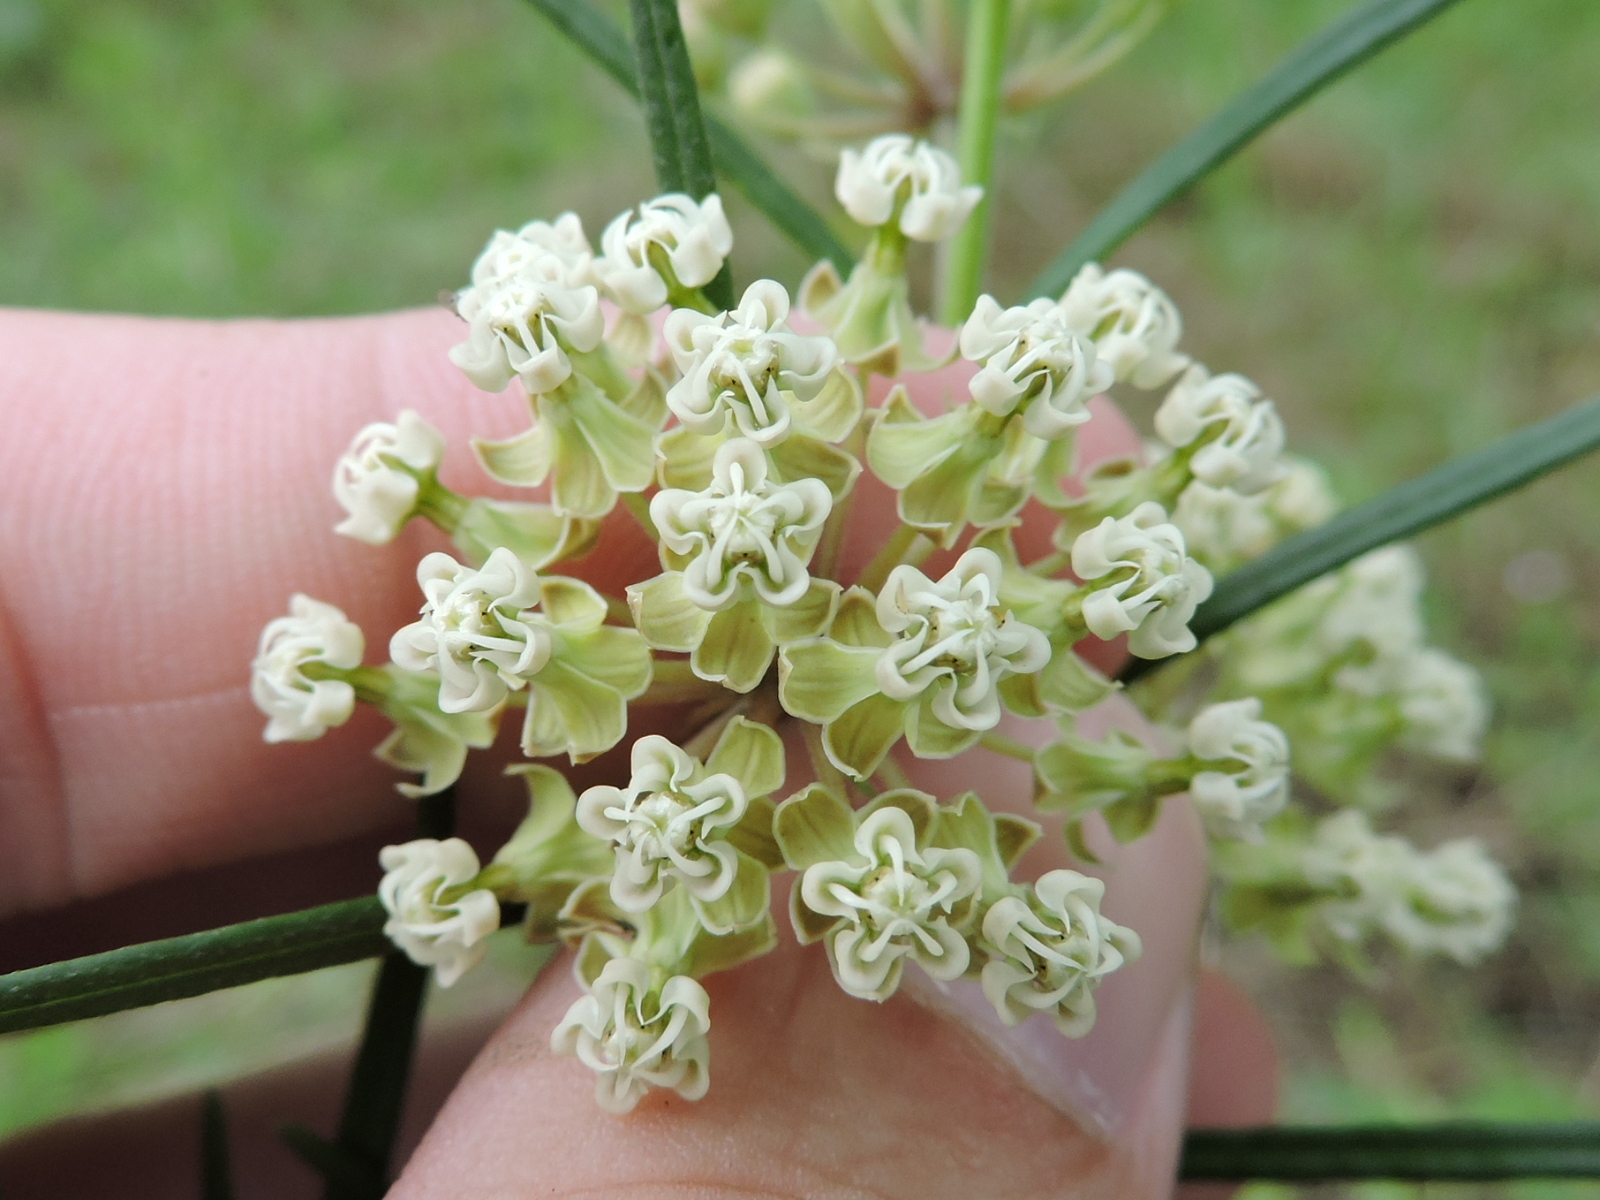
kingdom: Plantae
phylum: Tracheophyta
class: Magnoliopsida
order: Gentianales
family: Apocynaceae
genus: Asclepias
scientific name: Asclepias verticillata
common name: Eastern whorled milkweed
